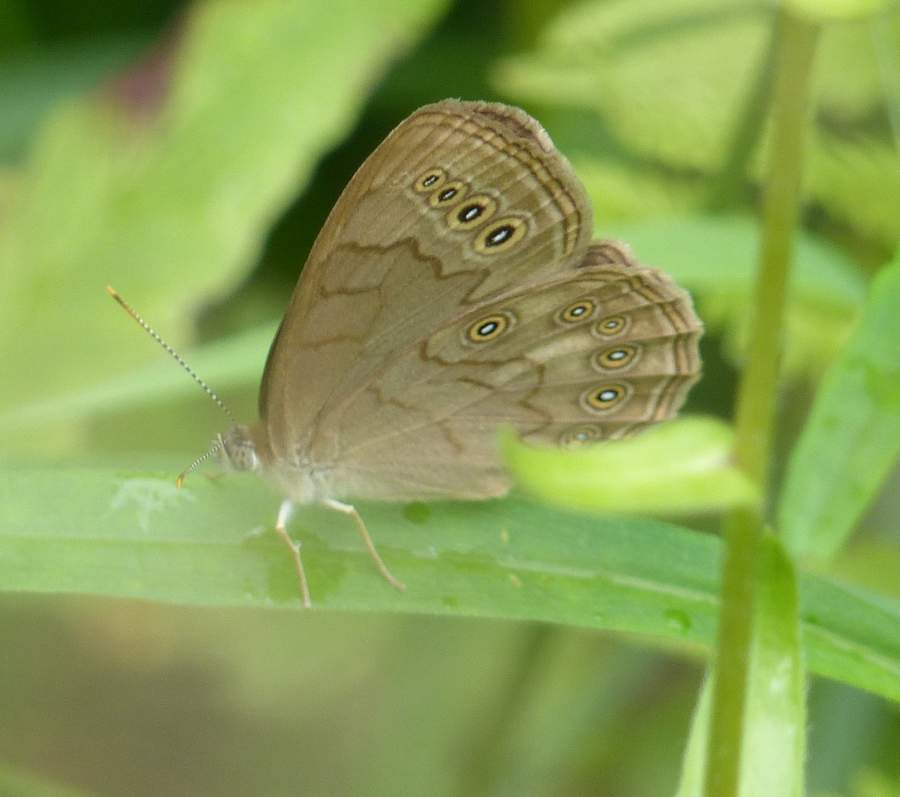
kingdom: Animalia
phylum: Arthropoda
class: Insecta
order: Lepidoptera
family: Nymphalidae
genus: Lethe
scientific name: Lethe eurydice
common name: Eyed brown
